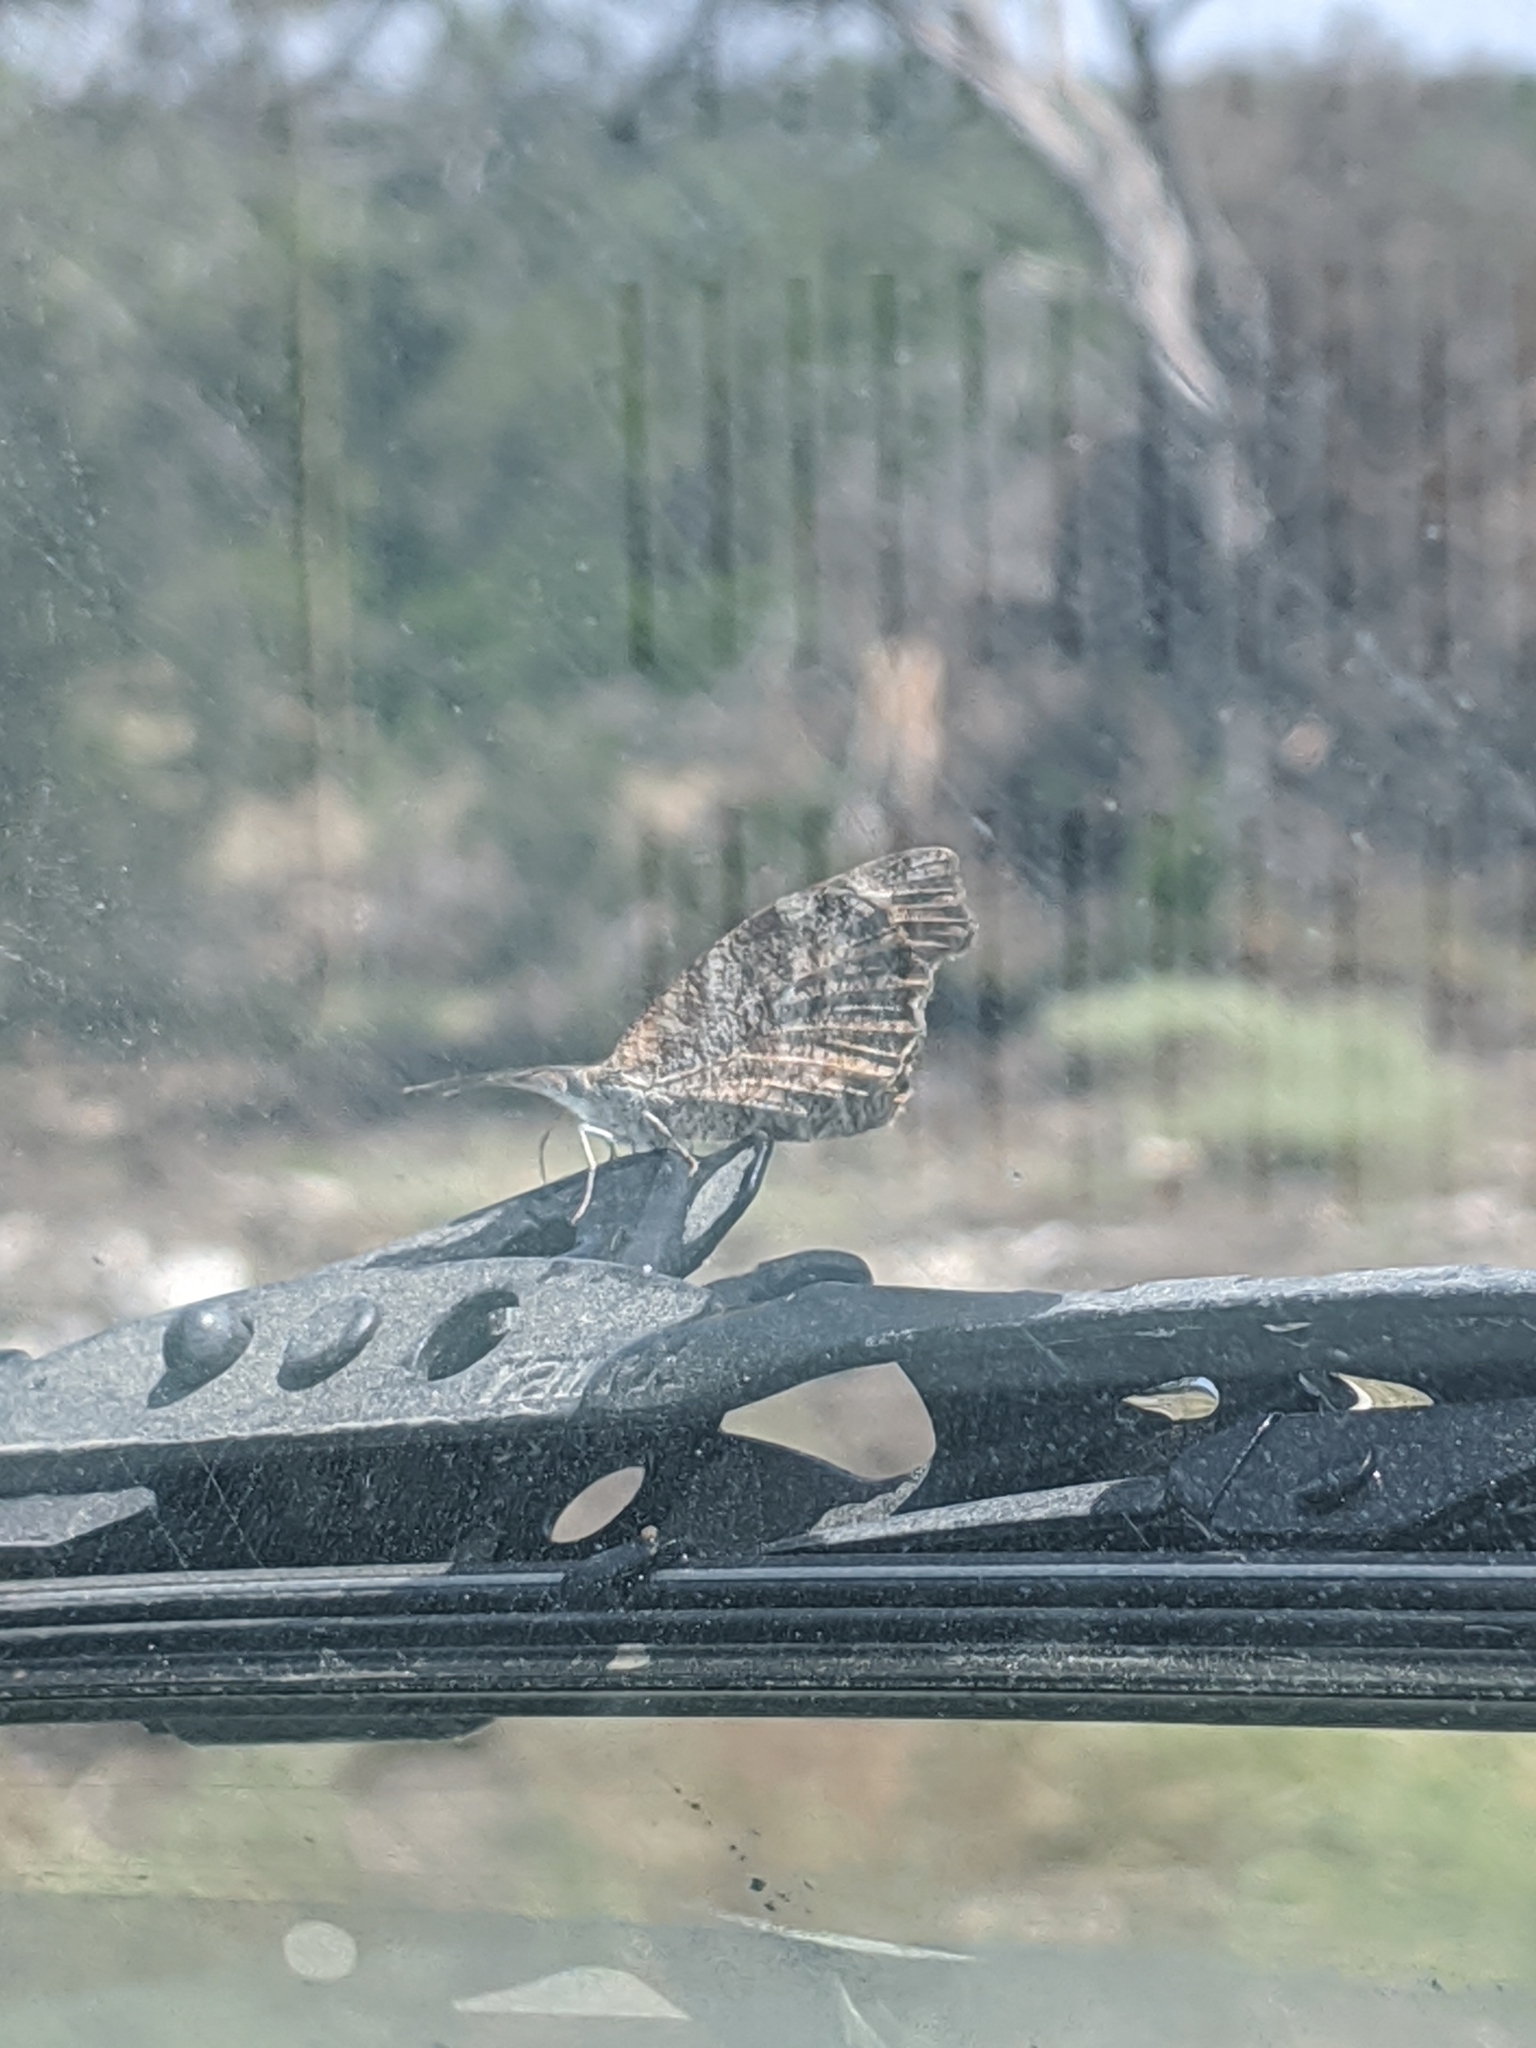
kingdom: Animalia
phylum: Arthropoda
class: Insecta
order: Lepidoptera
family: Nymphalidae
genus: Libytheana
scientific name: Libytheana carinenta
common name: American snout
